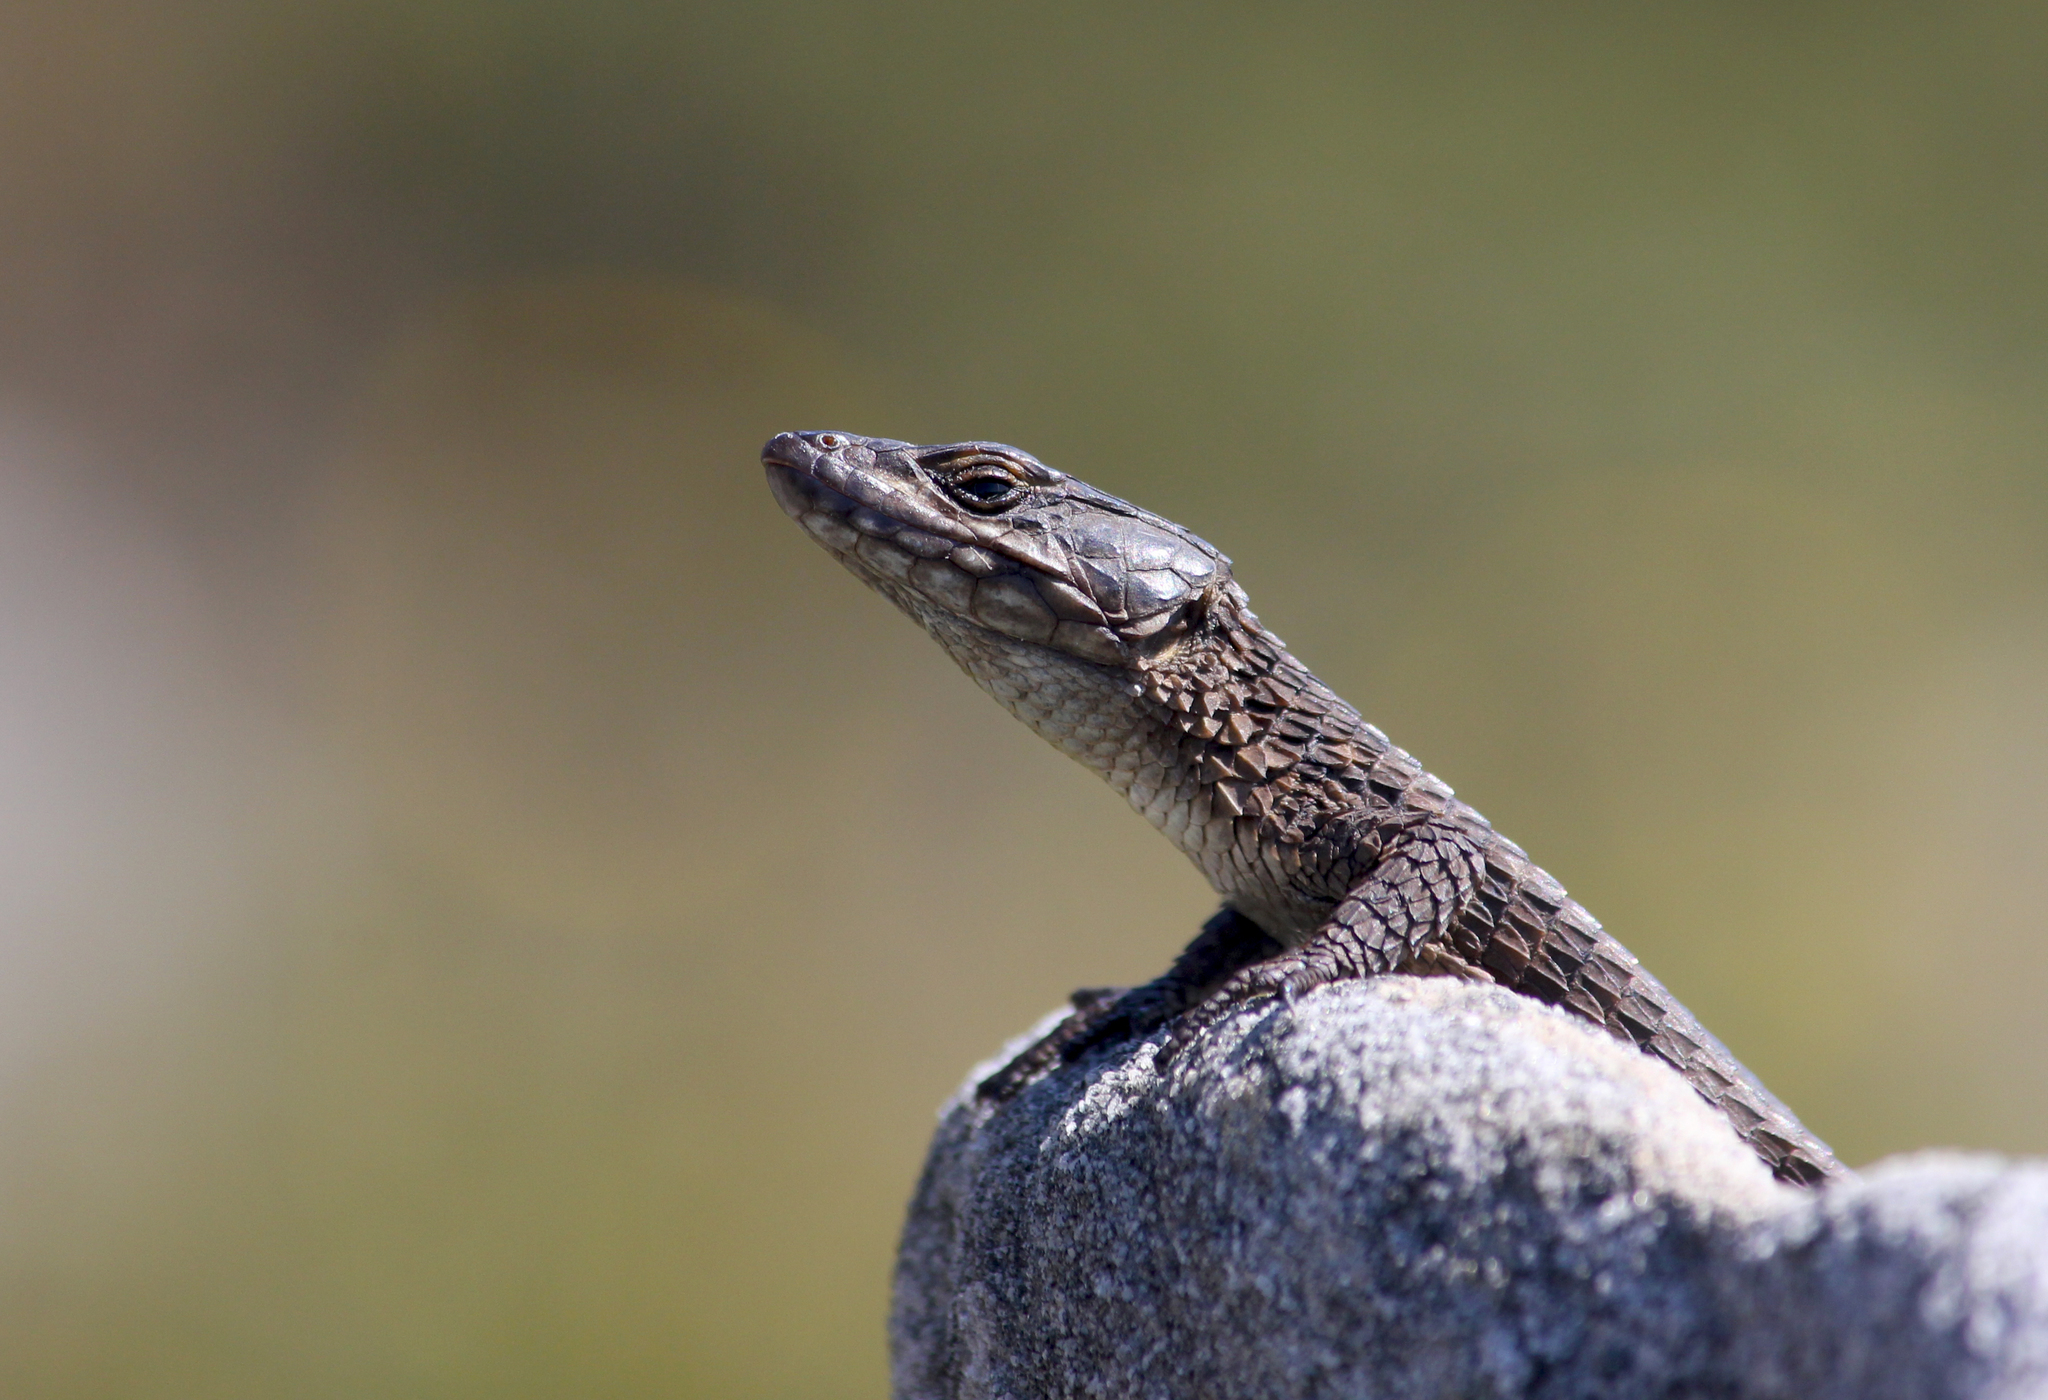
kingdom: Animalia
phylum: Chordata
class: Squamata
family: Cordylidae
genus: Cordylus
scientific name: Cordylus niger
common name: Black girdled lizard
